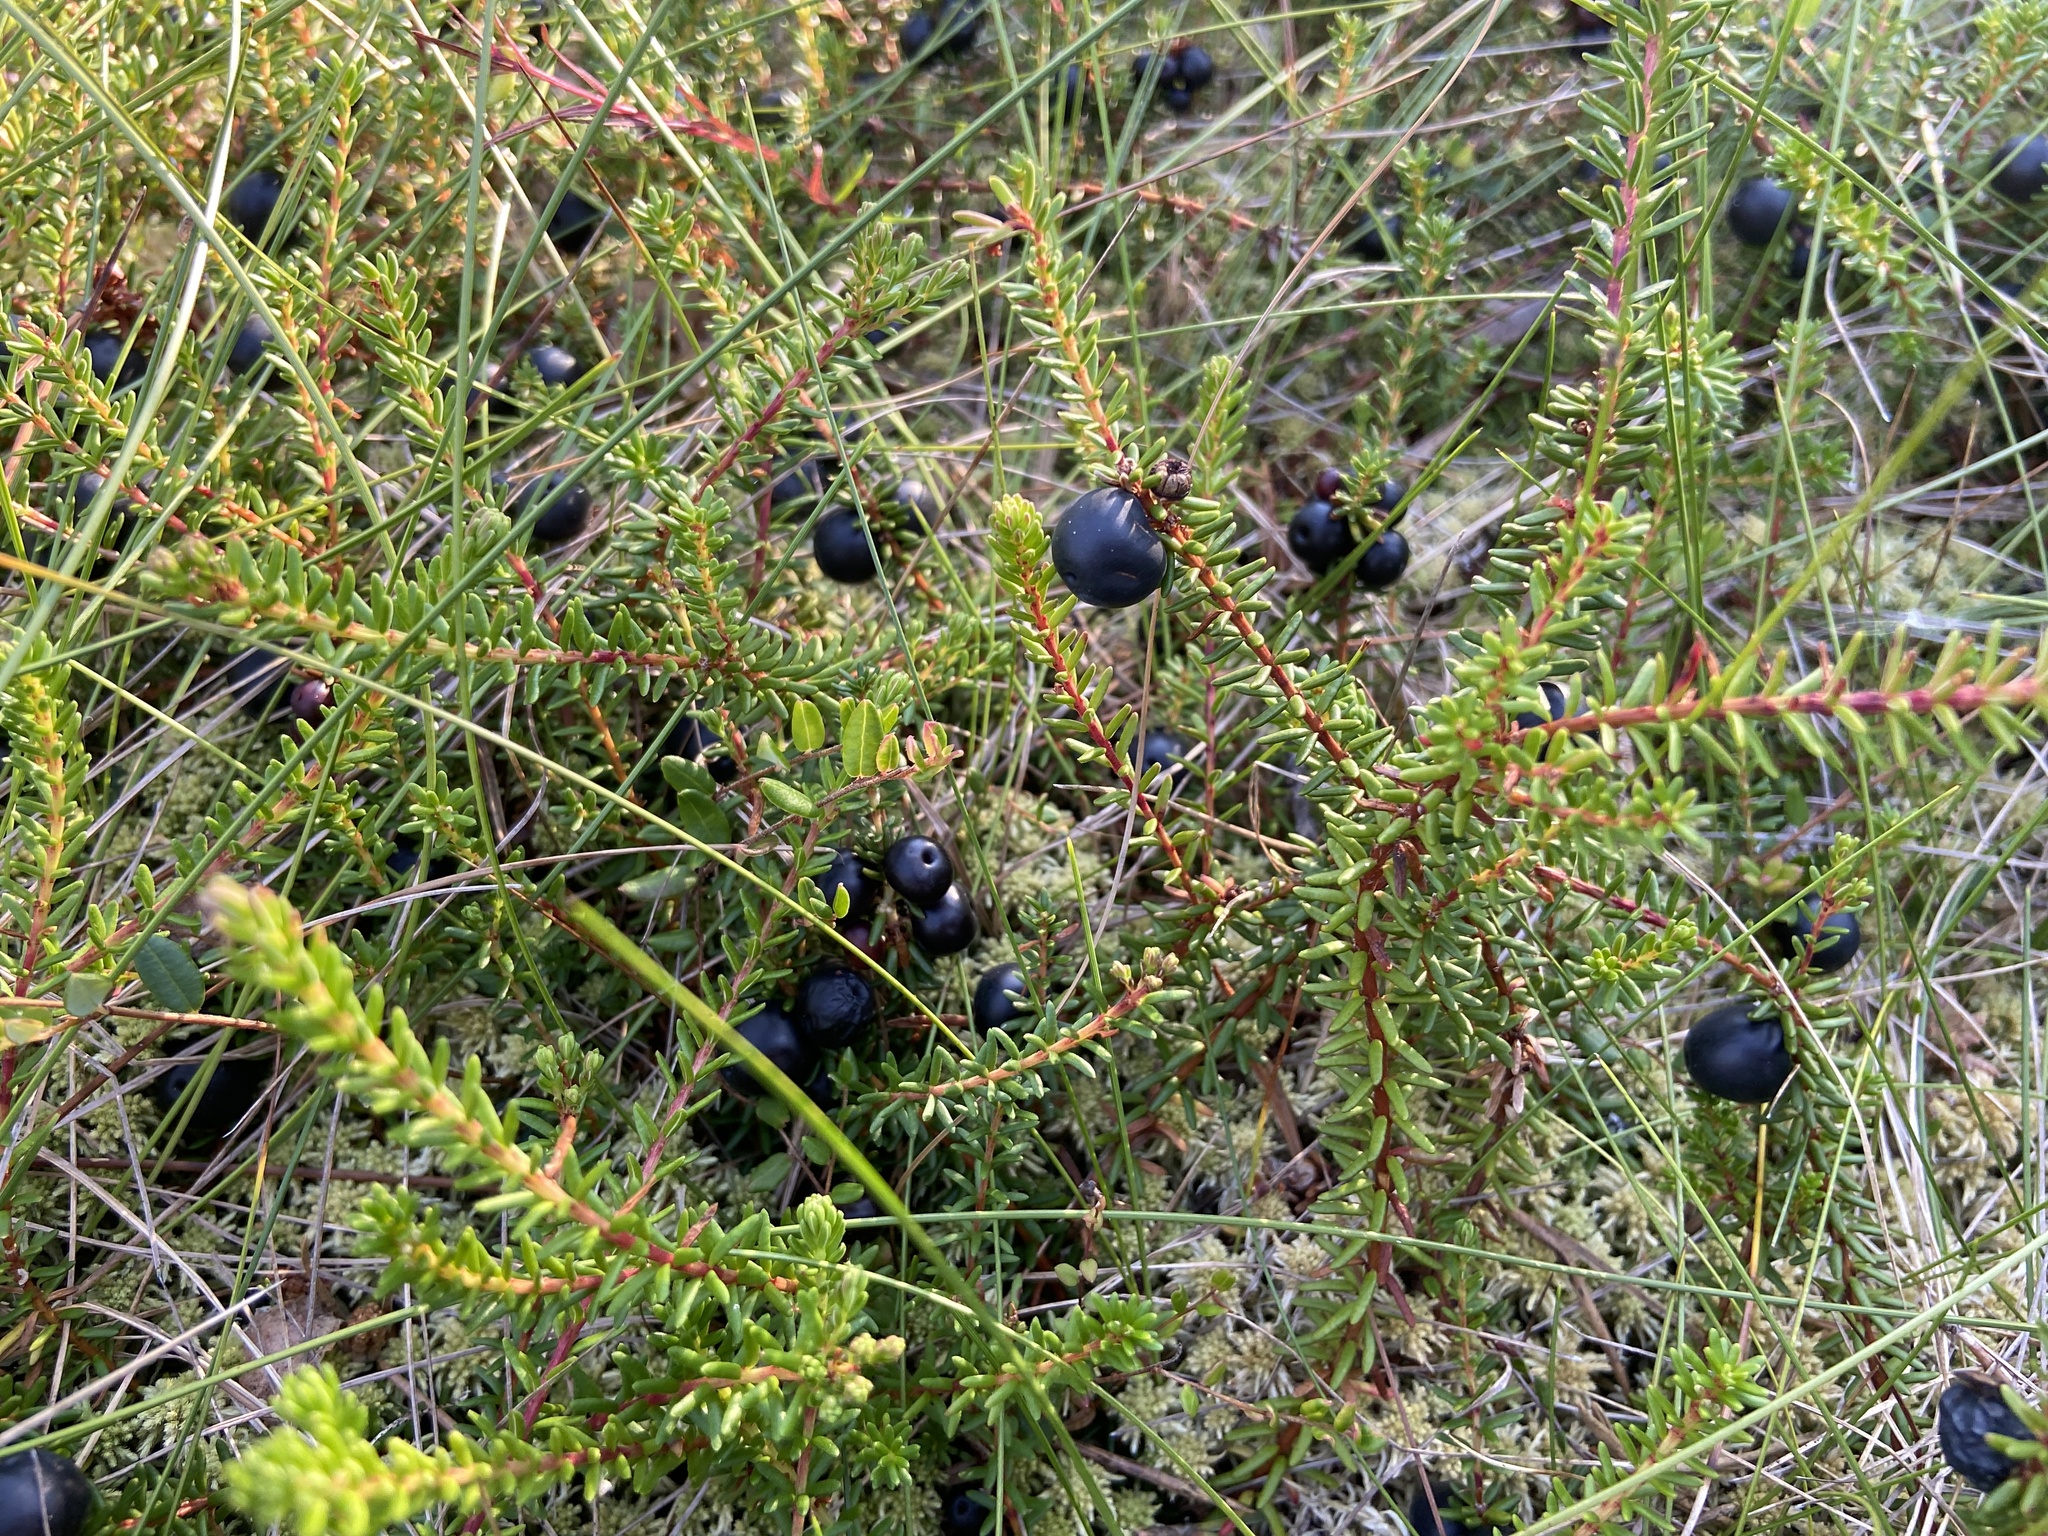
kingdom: Plantae
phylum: Tracheophyta
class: Magnoliopsida
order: Ericales
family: Ericaceae
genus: Empetrum
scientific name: Empetrum nigrum
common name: Black crowberry
